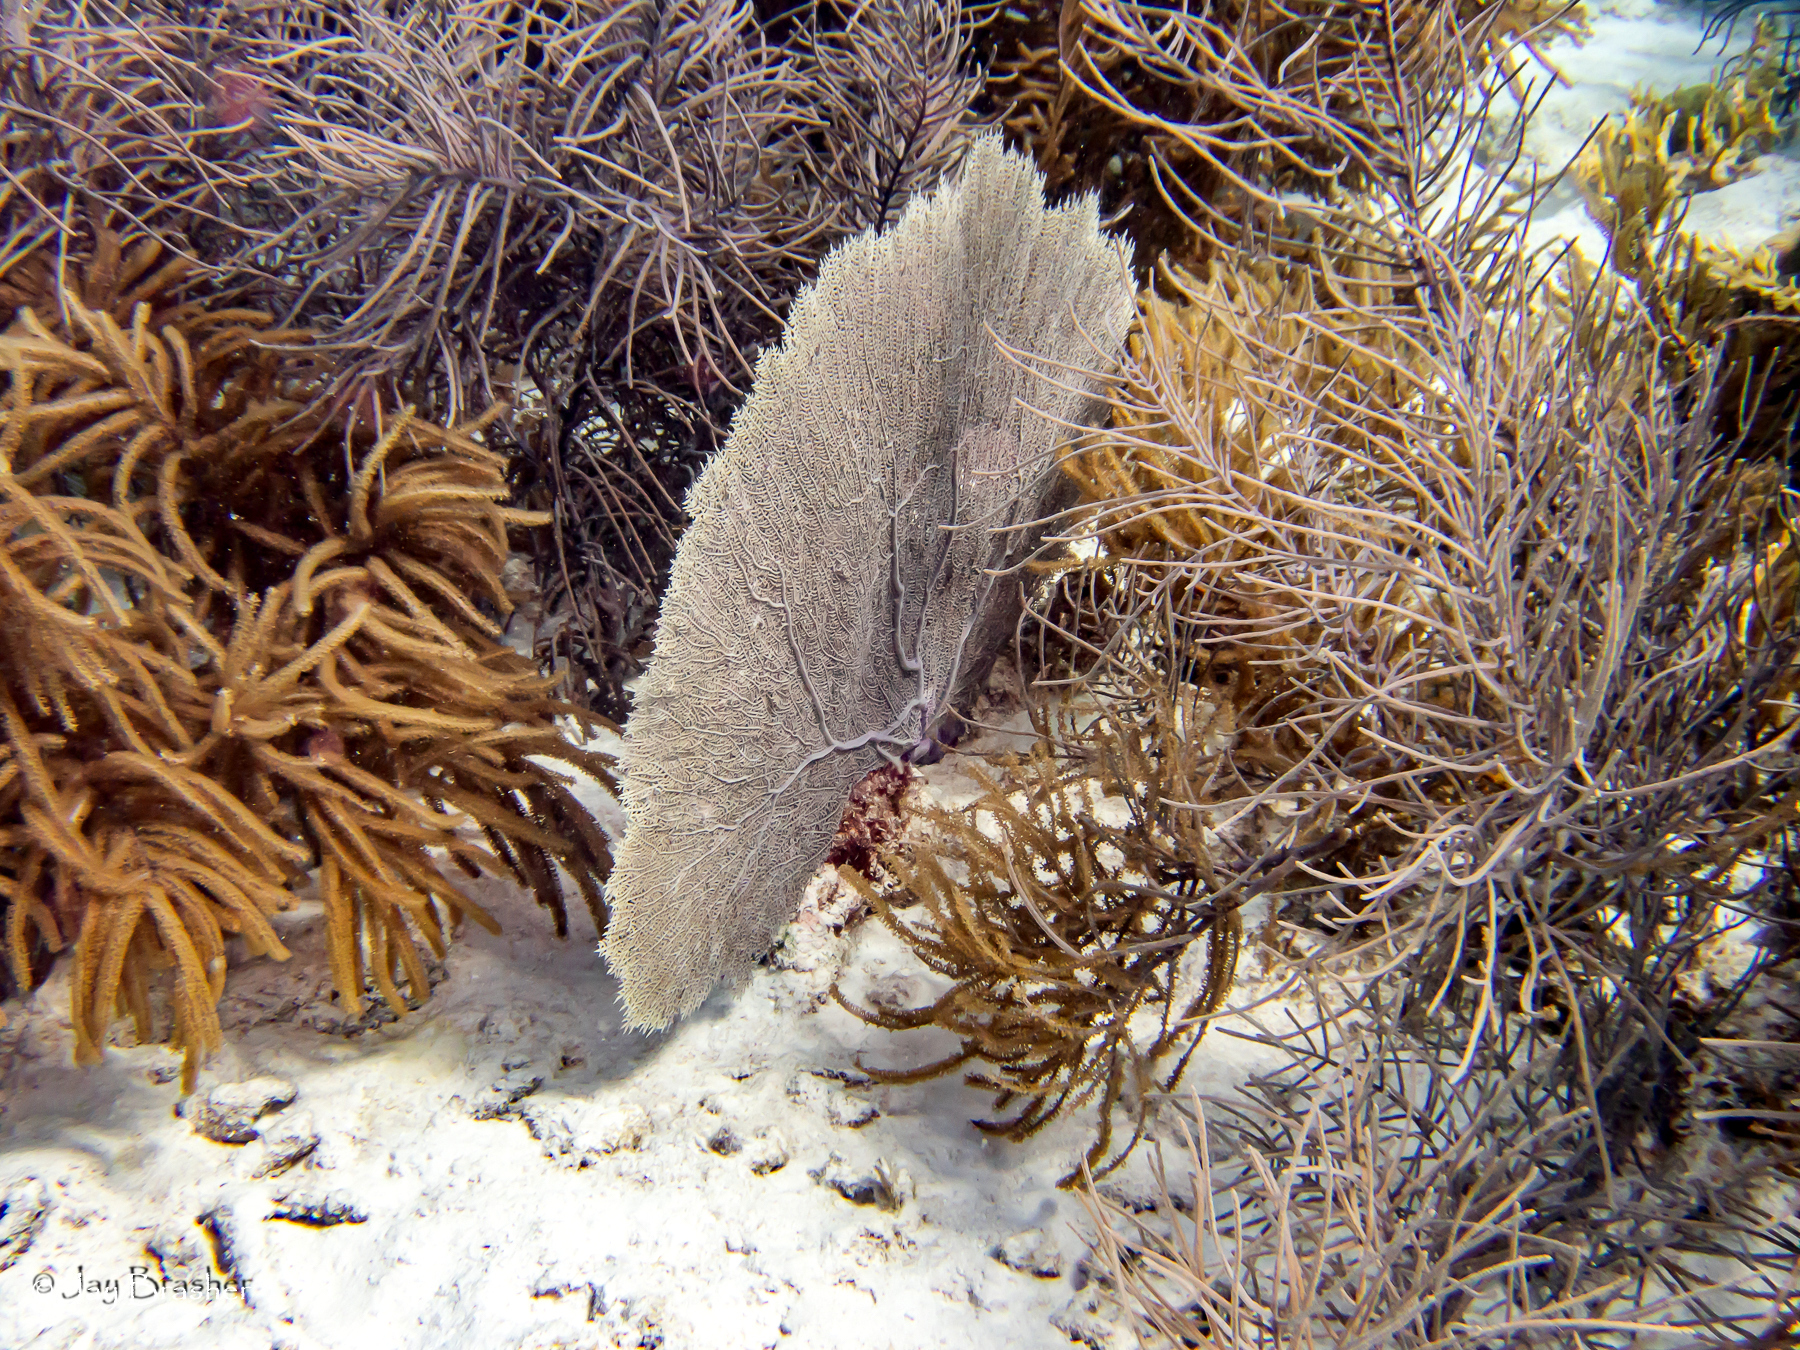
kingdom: Animalia
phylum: Cnidaria
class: Anthozoa
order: Malacalcyonacea
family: Gorgoniidae
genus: Gorgonia
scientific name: Gorgonia ventalina
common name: Common sea fan
